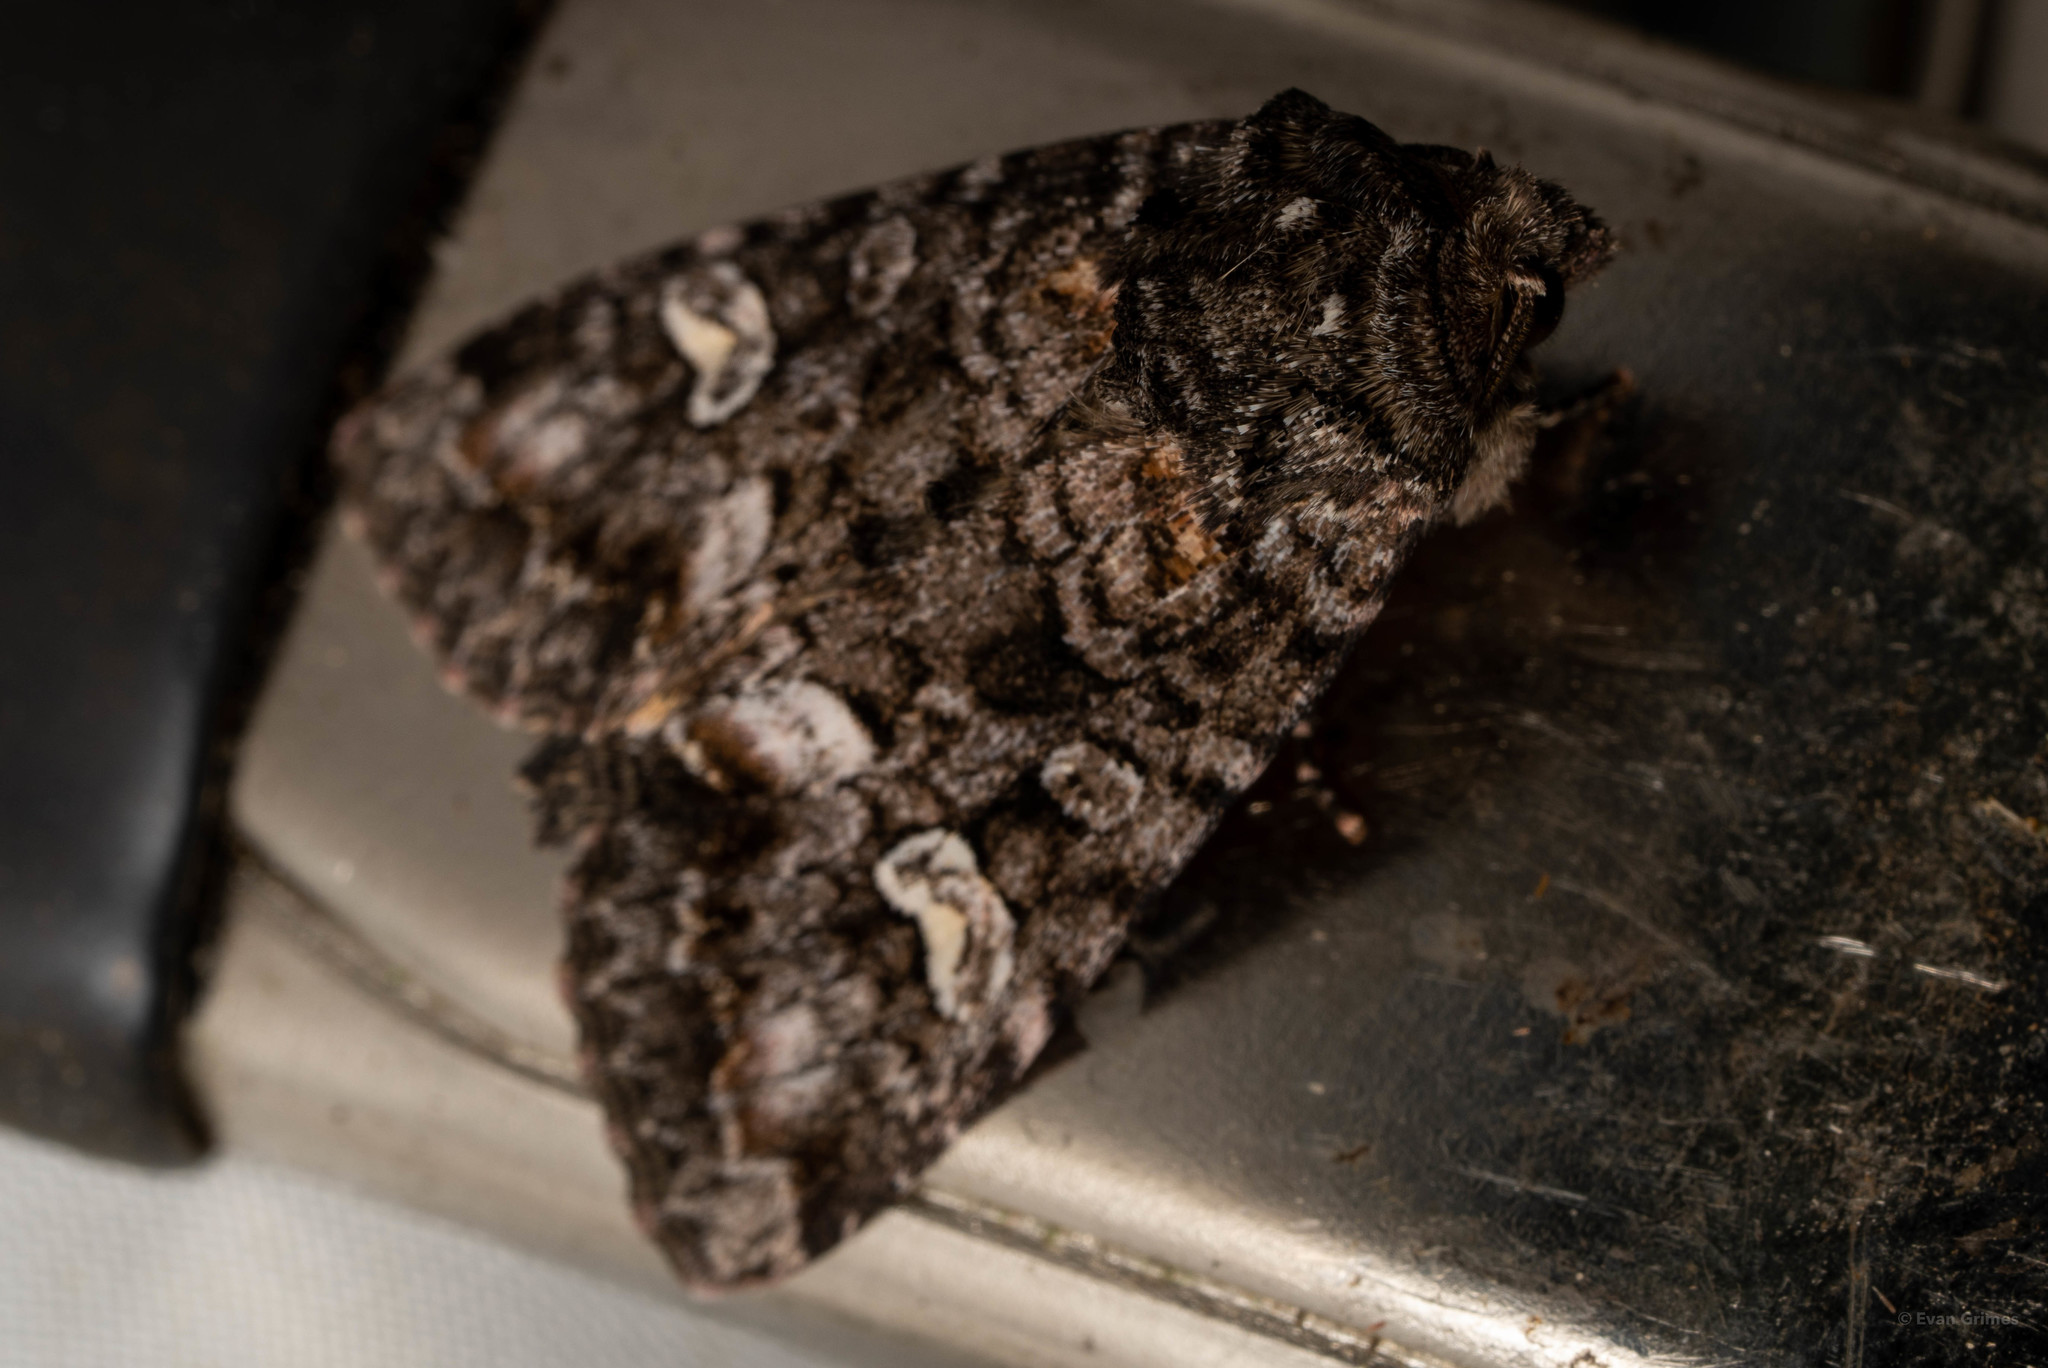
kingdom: Animalia
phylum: Arthropoda
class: Insecta
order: Lepidoptera
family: Noctuidae
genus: Spiramater
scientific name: Spiramater lutra
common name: Otter spiramater moth
